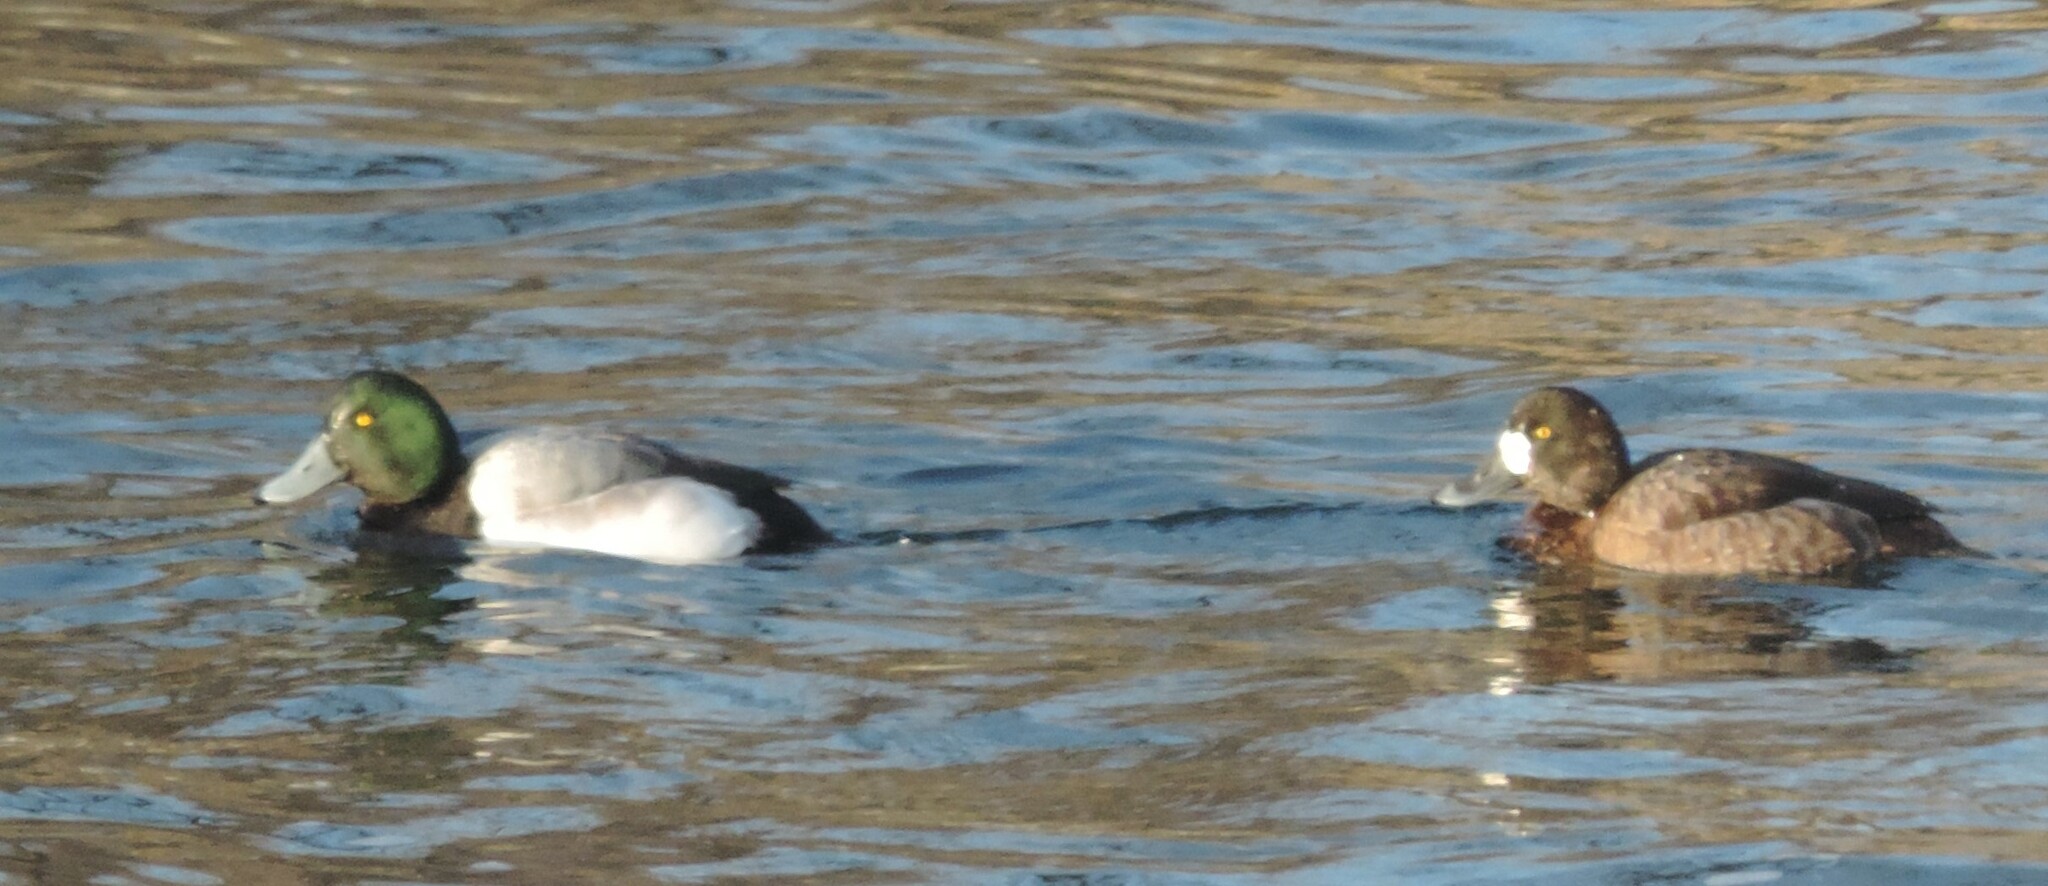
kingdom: Animalia
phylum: Chordata
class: Aves
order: Anseriformes
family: Anatidae
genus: Aythya
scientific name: Aythya marila
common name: Greater scaup
